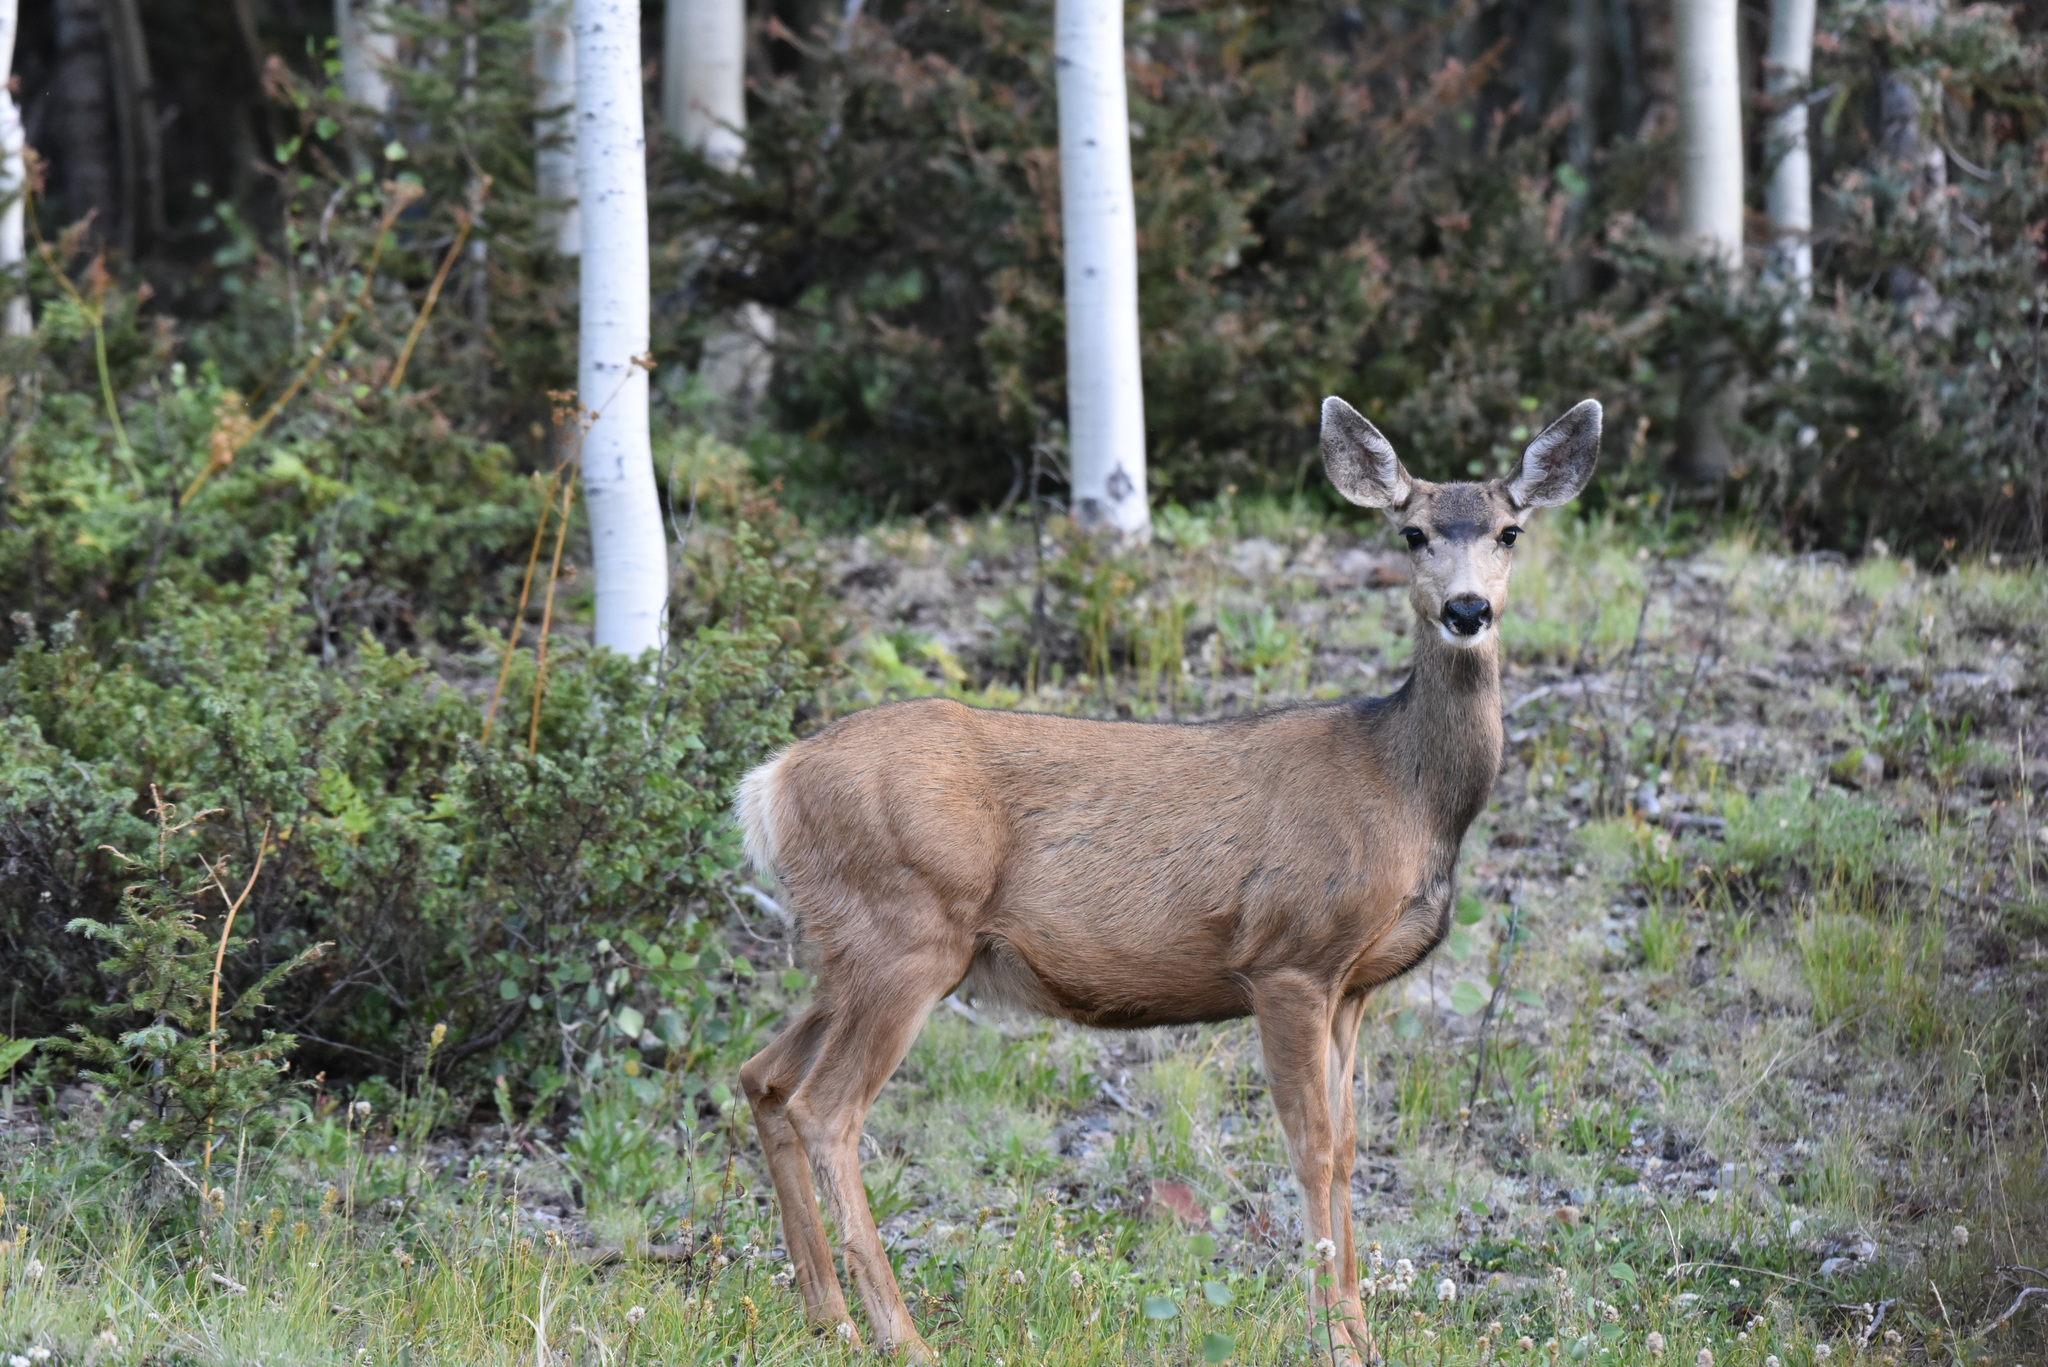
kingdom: Animalia
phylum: Chordata
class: Mammalia
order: Artiodactyla
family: Cervidae
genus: Odocoileus
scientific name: Odocoileus hemionus
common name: Mule deer
